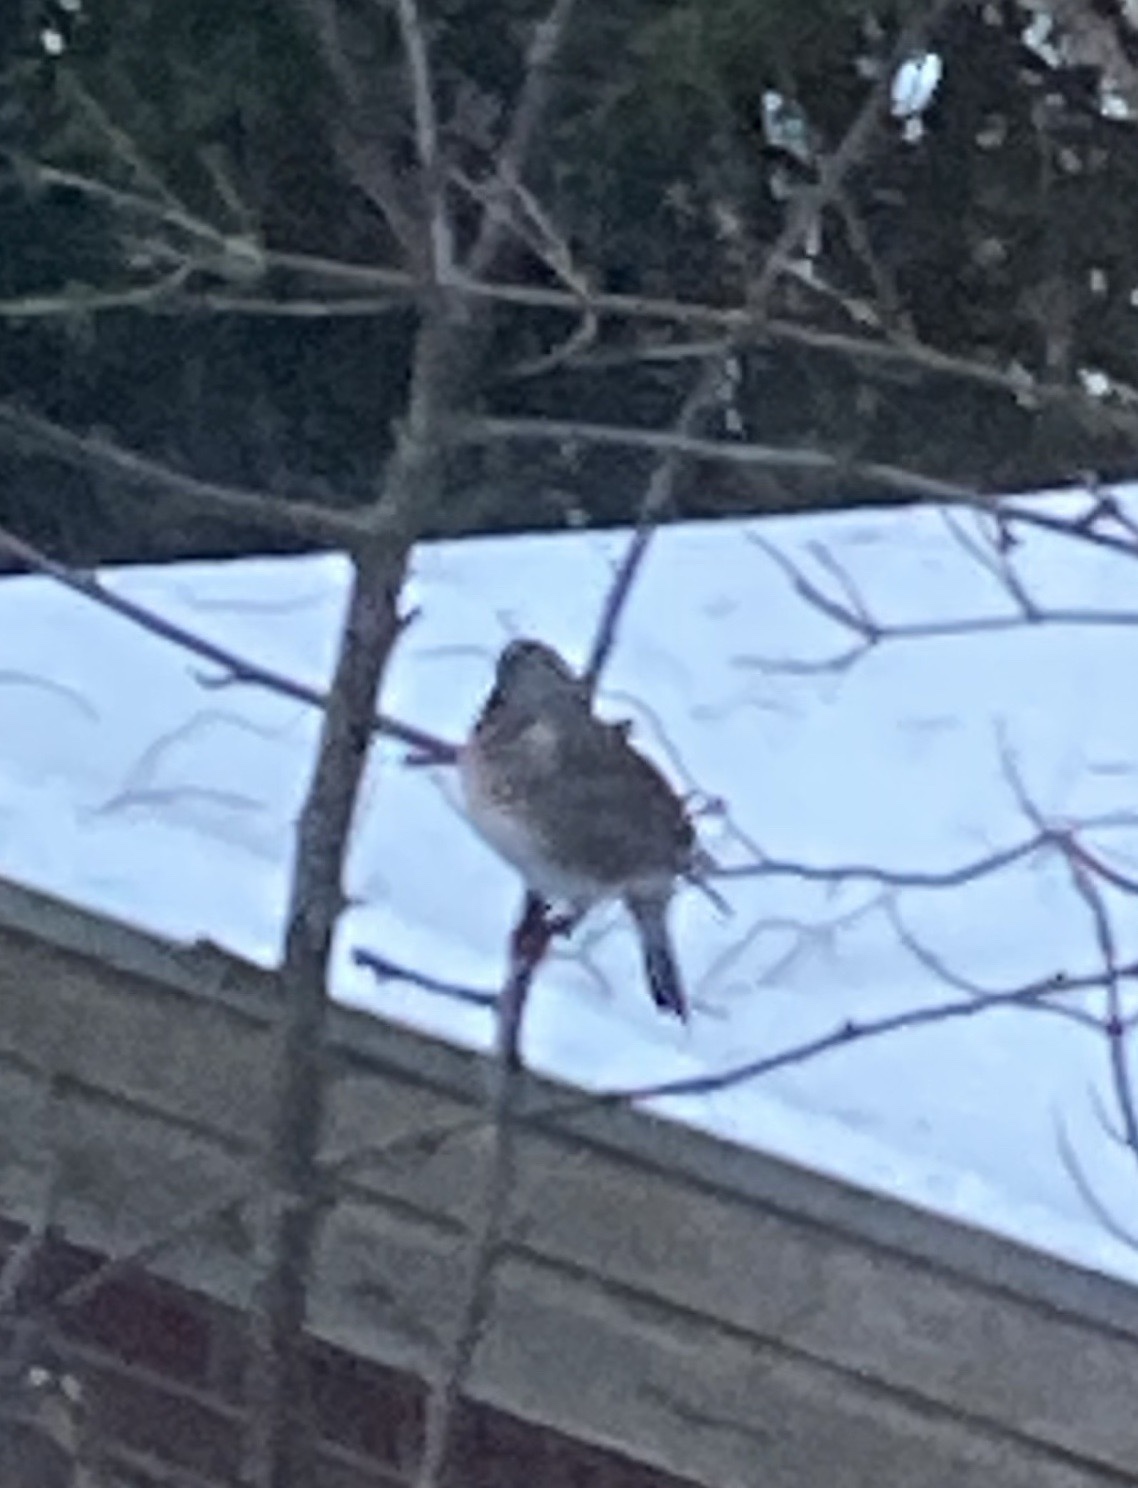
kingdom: Animalia
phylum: Chordata
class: Aves
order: Passeriformes
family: Turdidae
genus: Turdus
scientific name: Turdus pilaris
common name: Fieldfare
